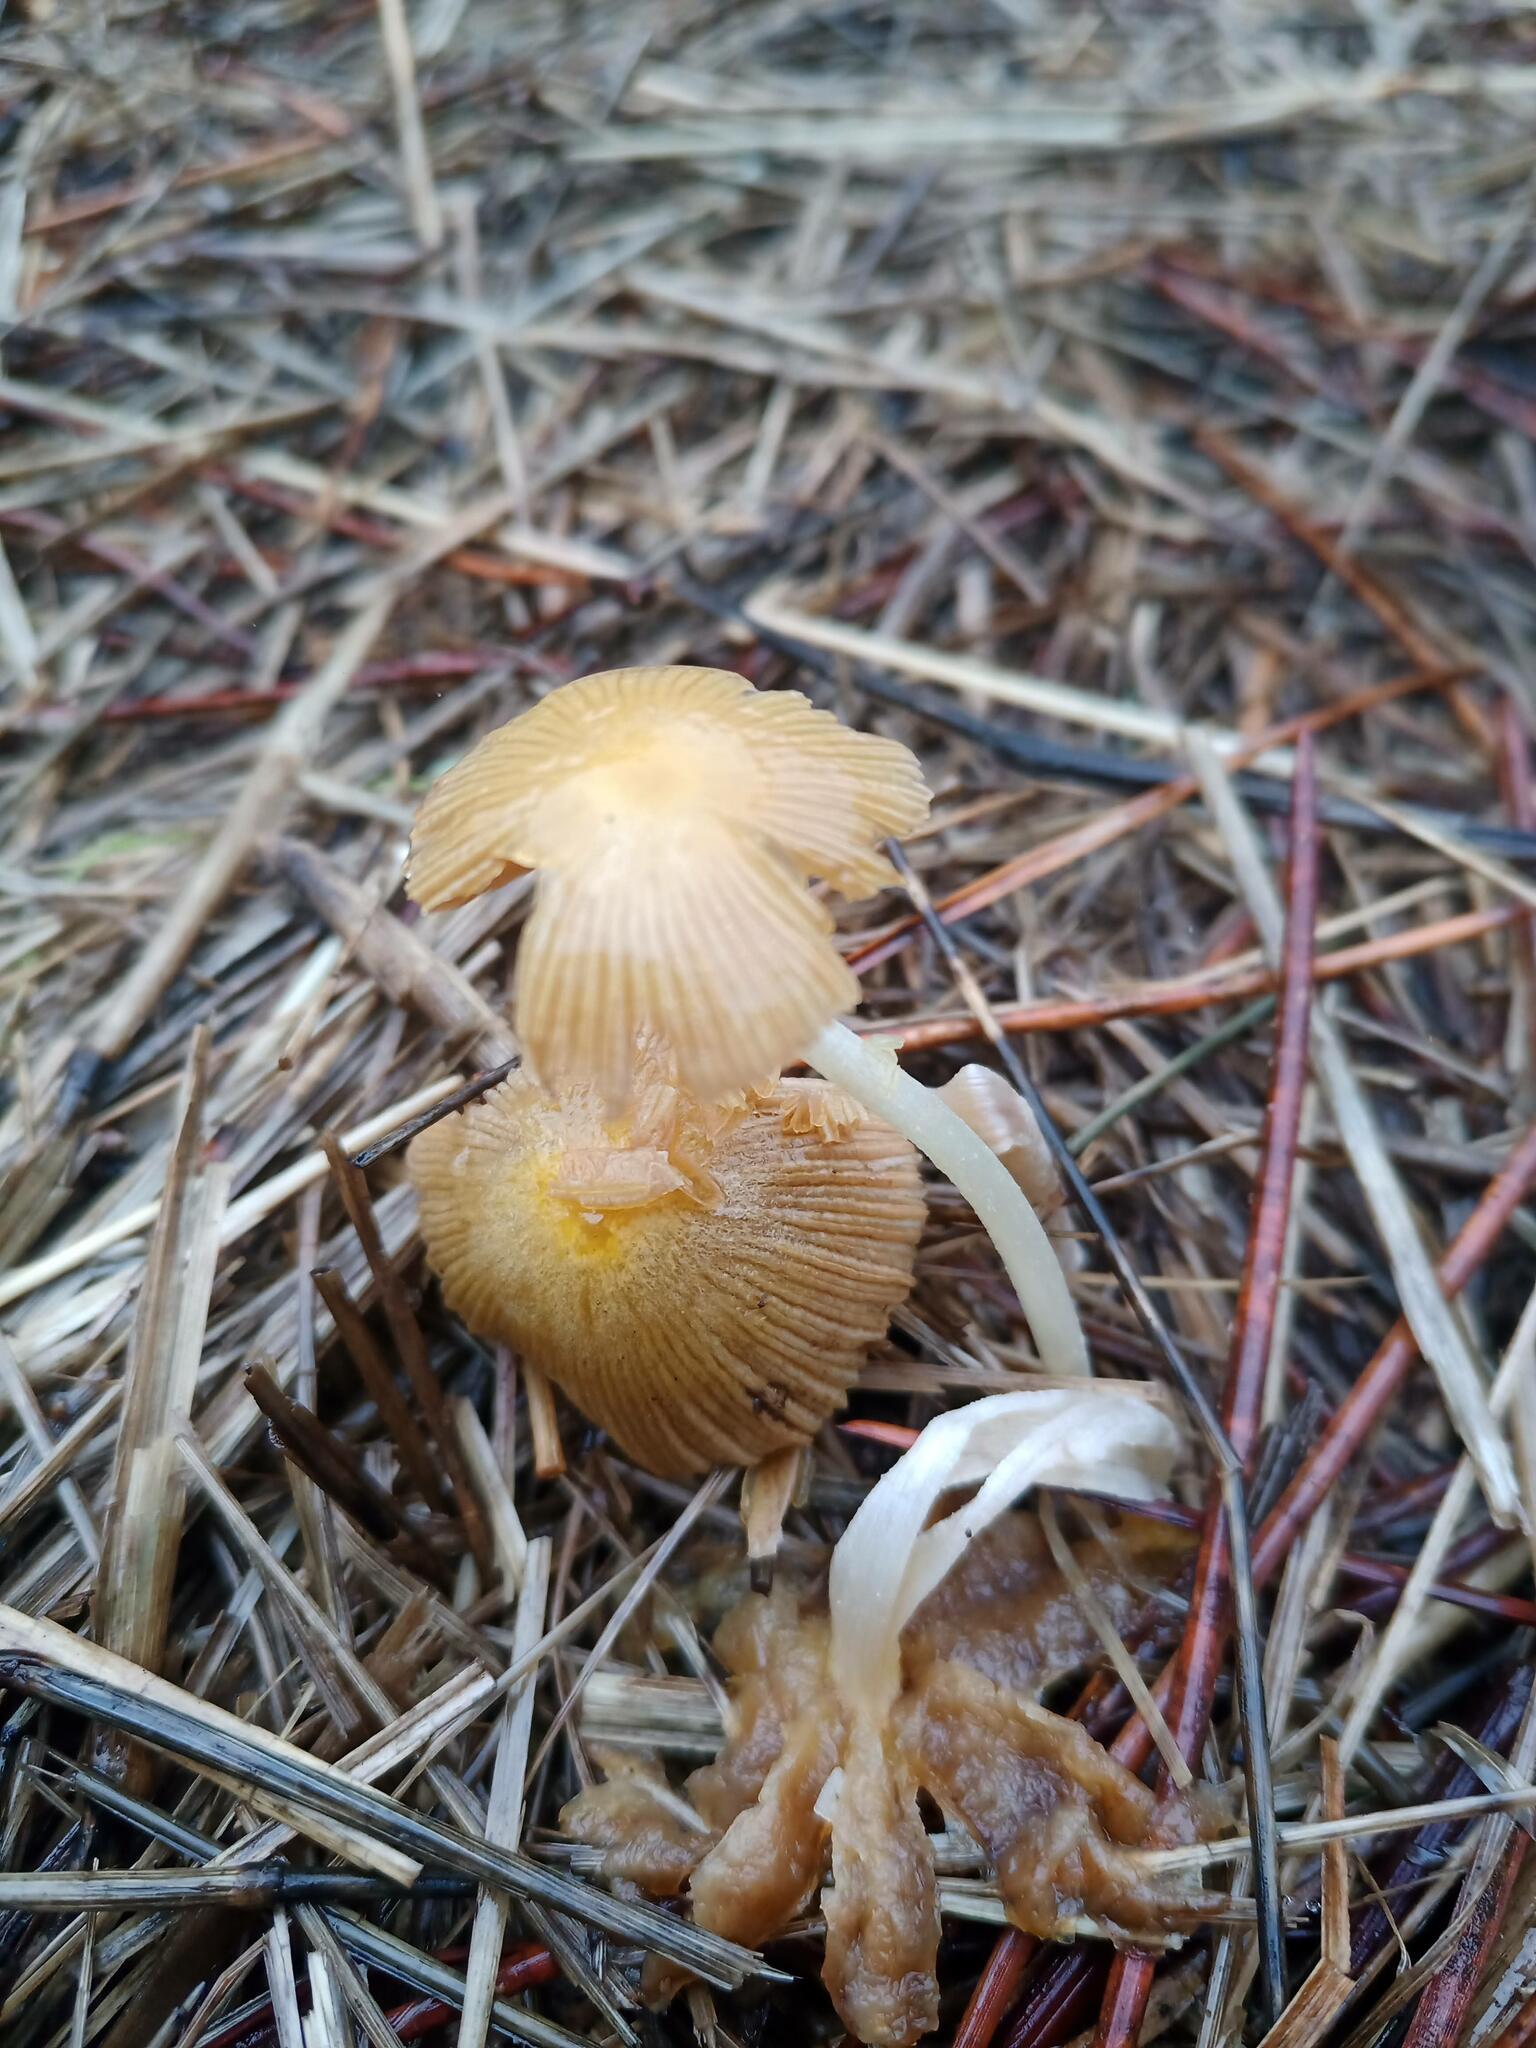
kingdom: Fungi
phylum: Basidiomycota
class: Agaricomycetes
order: Agaricales
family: Bolbitiaceae
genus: Bolbitius
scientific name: Bolbitius titubans
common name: Yellow fieldcap
